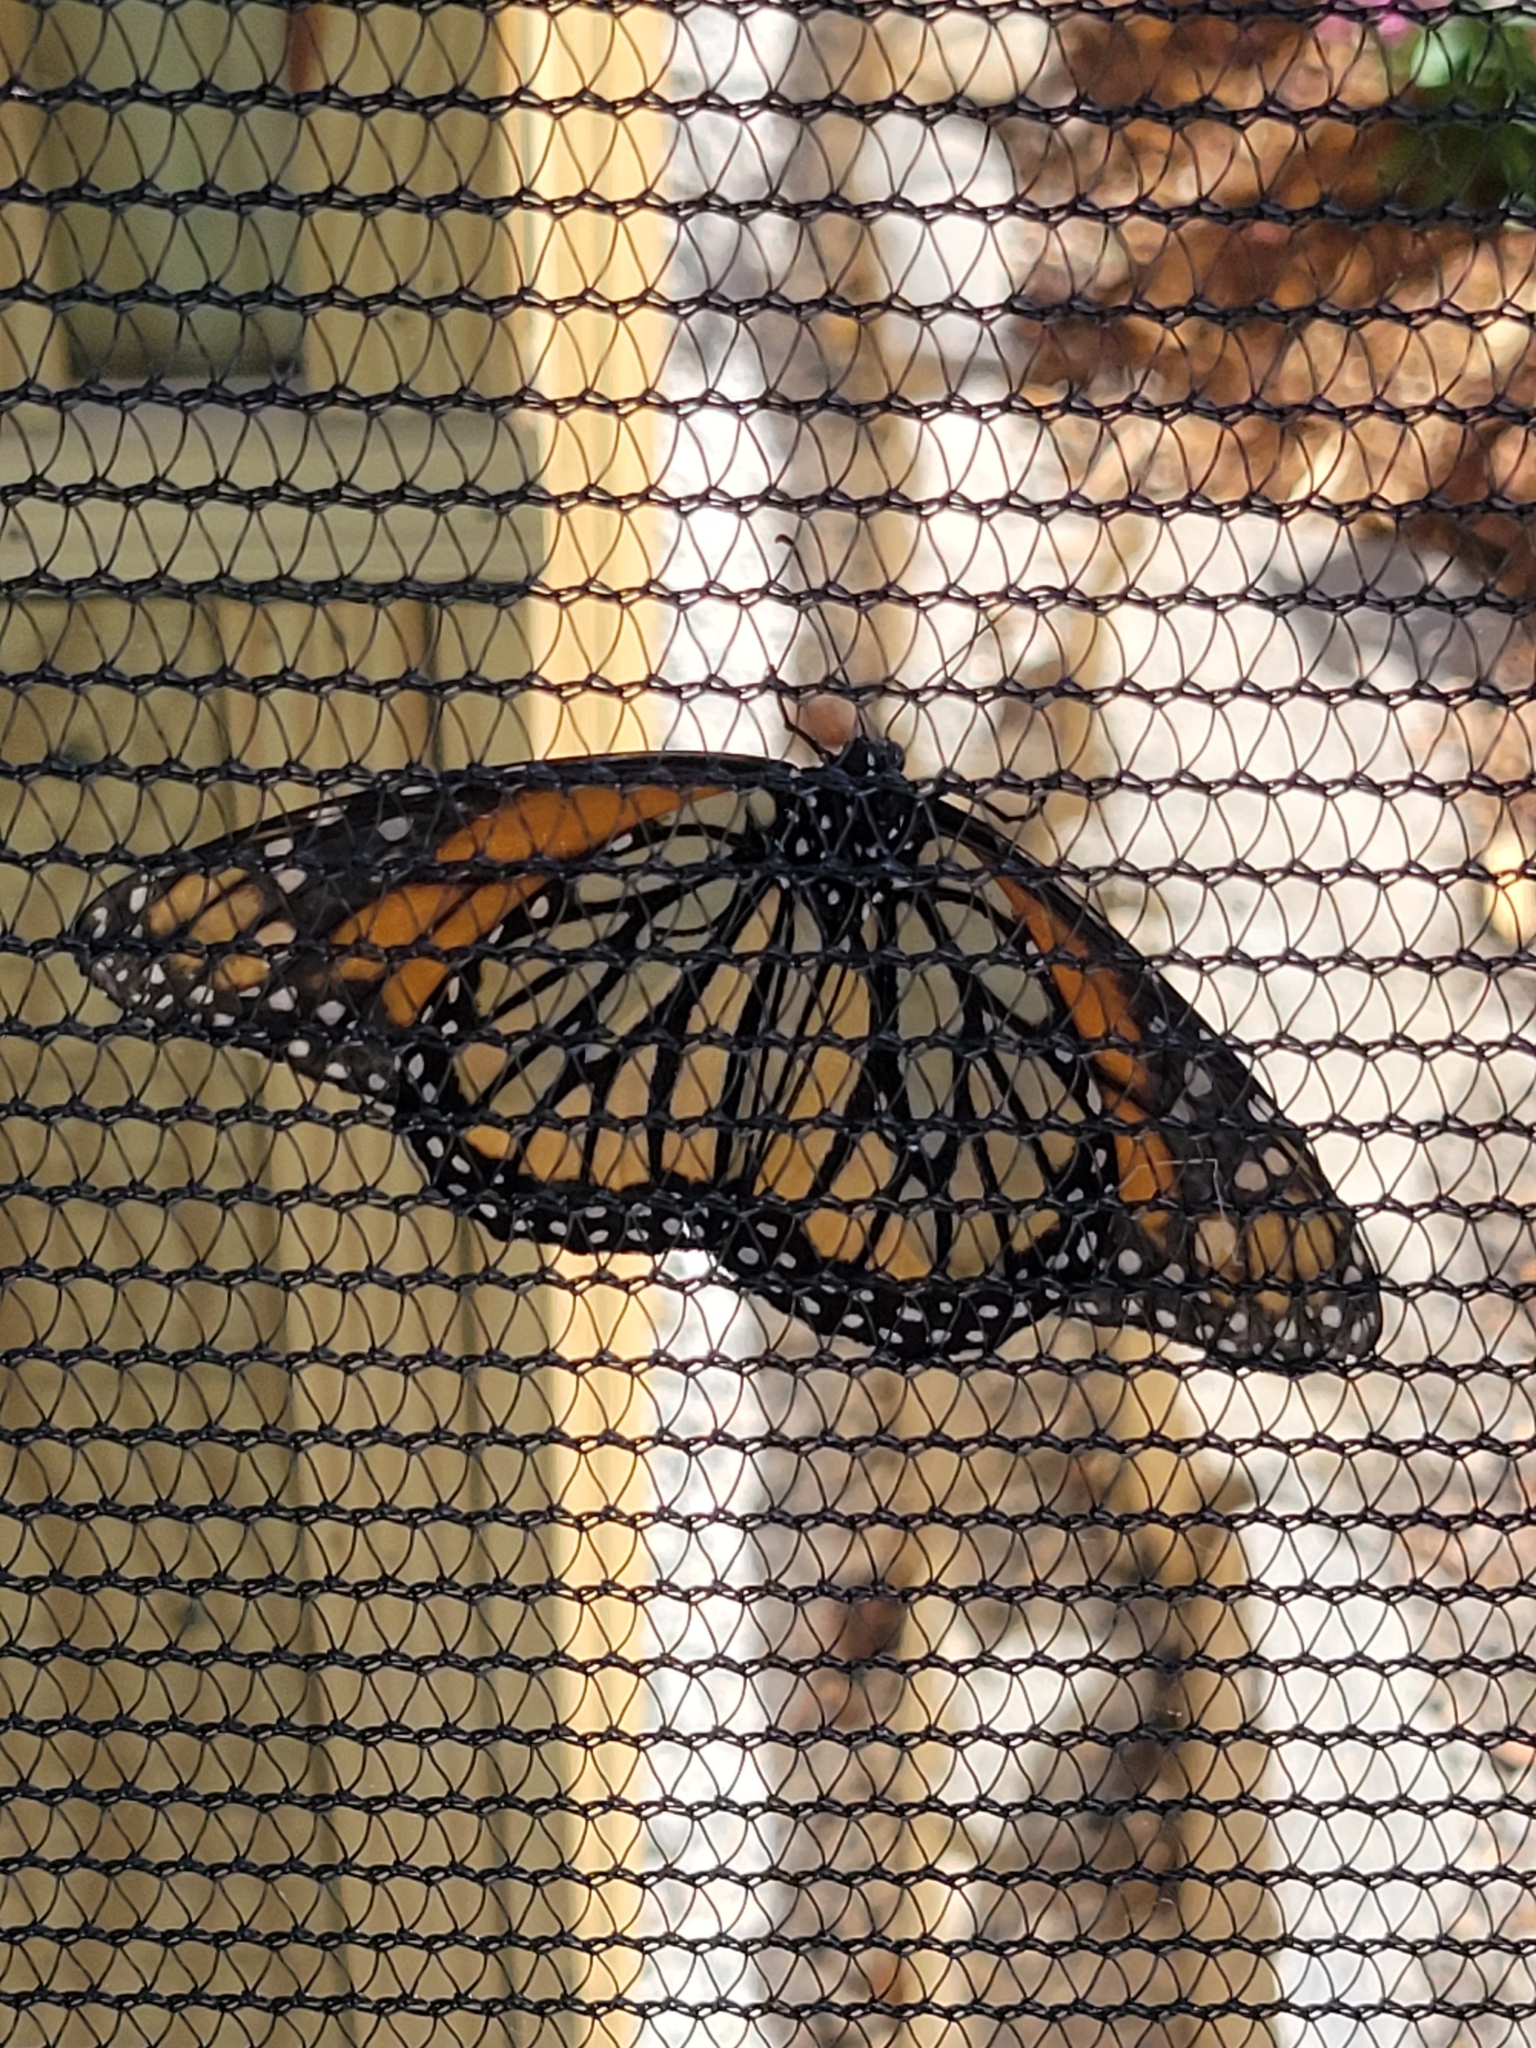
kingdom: Animalia
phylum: Arthropoda
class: Insecta
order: Lepidoptera
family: Nymphalidae
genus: Danaus
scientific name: Danaus plexippus
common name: Monarch
